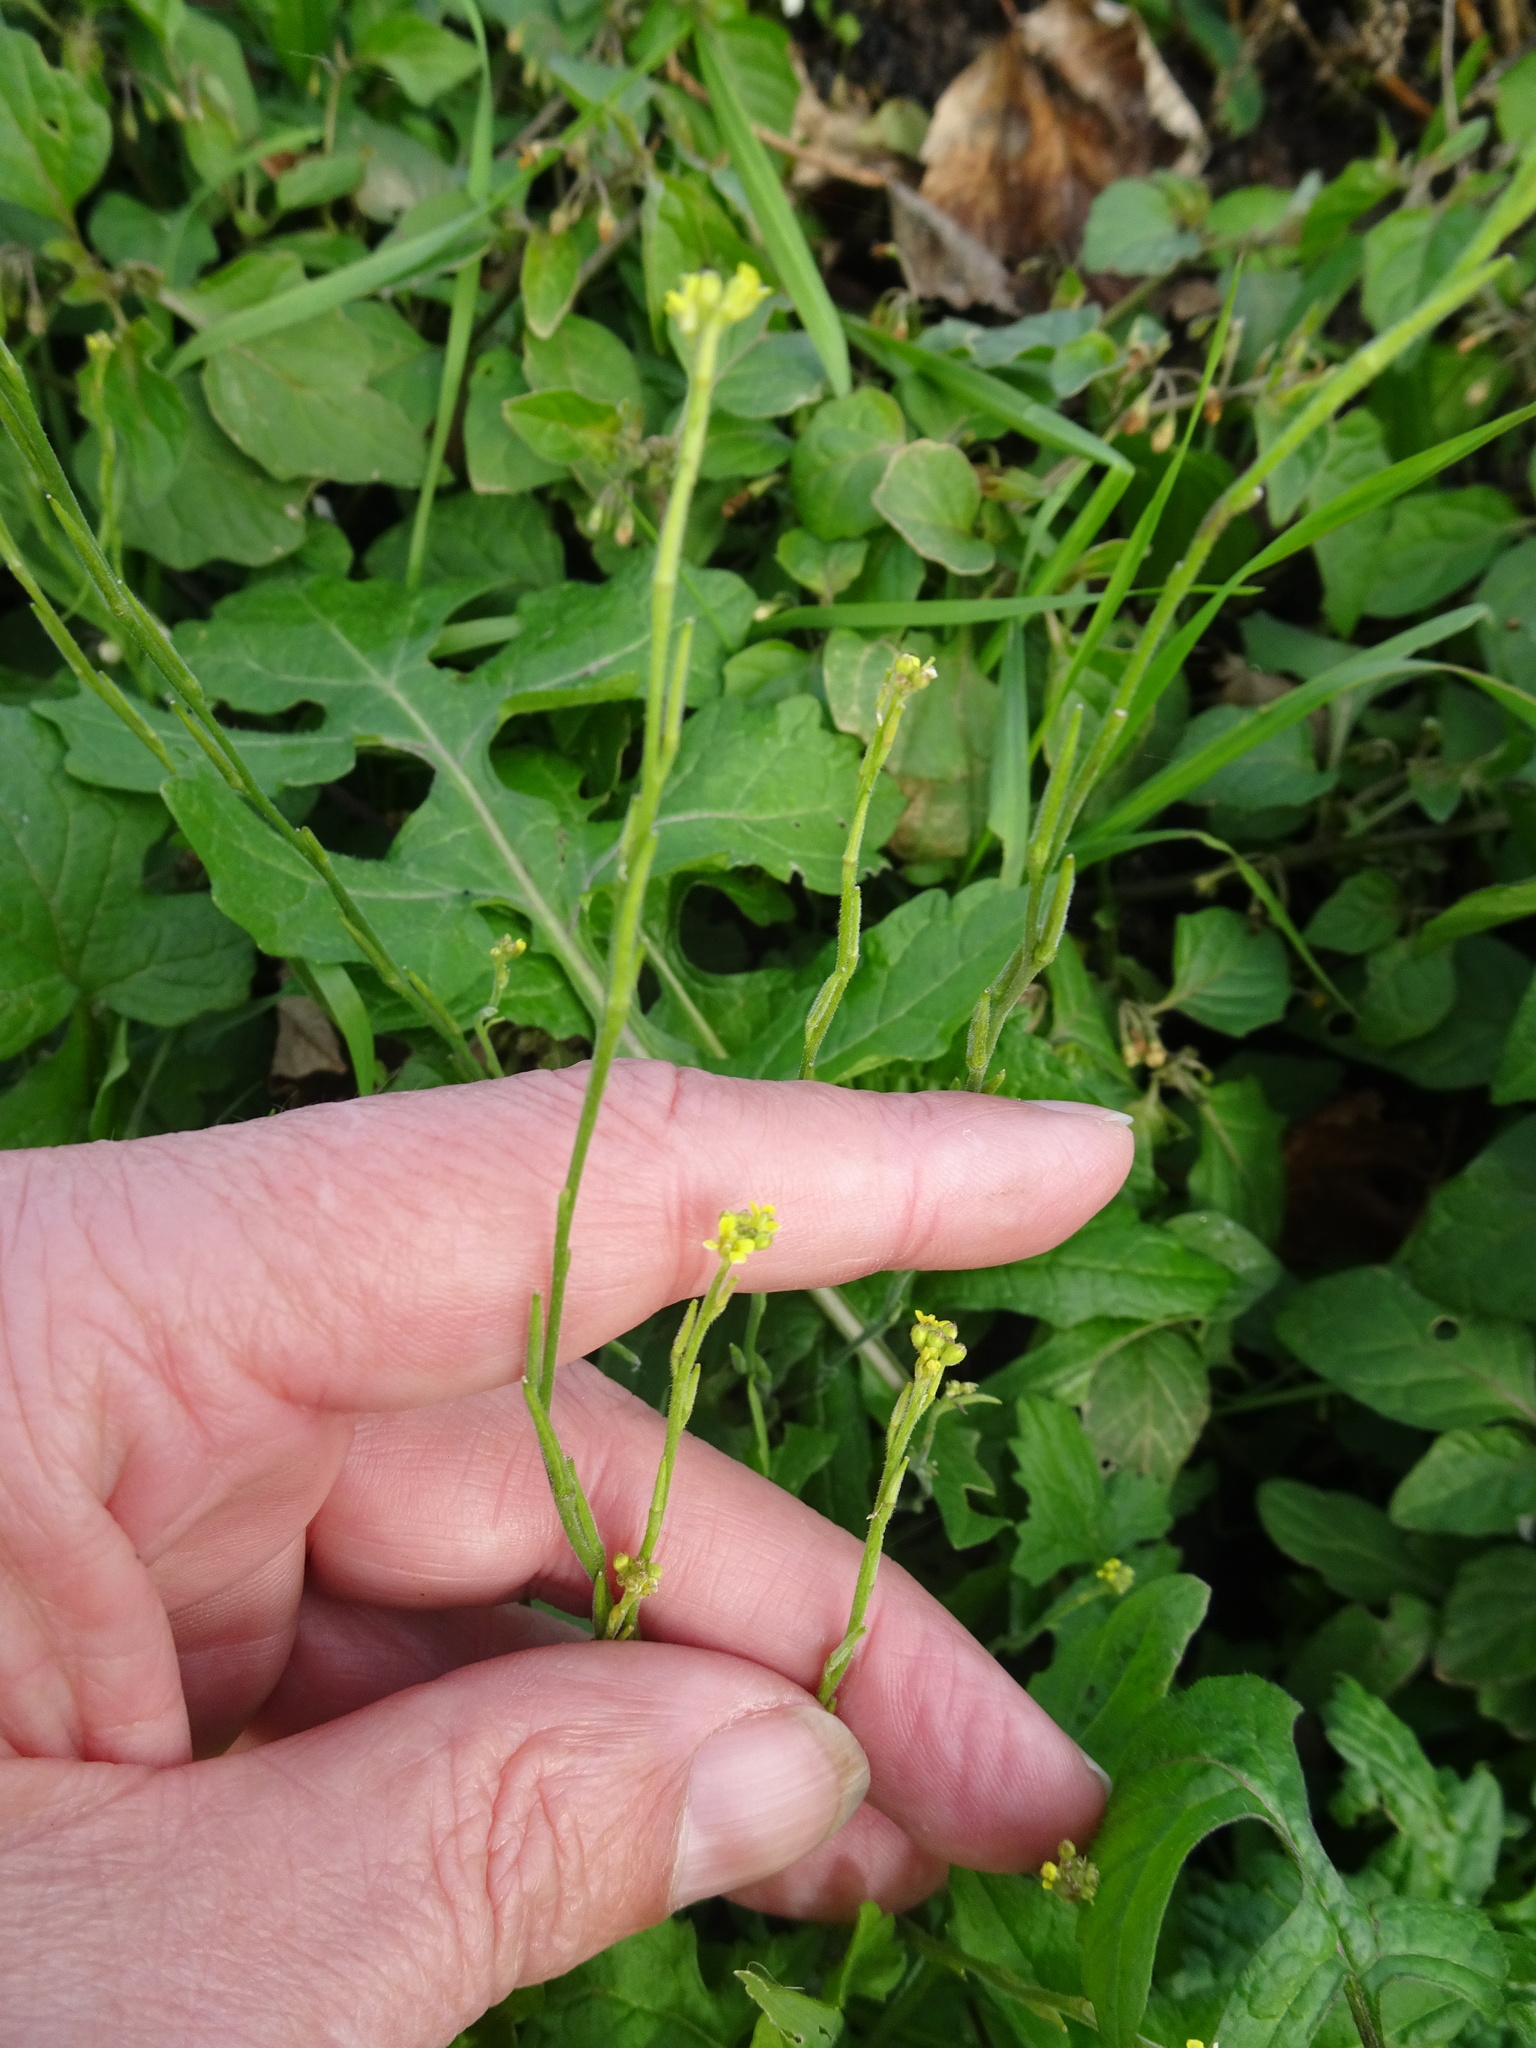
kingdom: Plantae
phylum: Tracheophyta
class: Magnoliopsida
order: Brassicales
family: Brassicaceae
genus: Sisymbrium
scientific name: Sisymbrium officinale
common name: Hedge mustard
